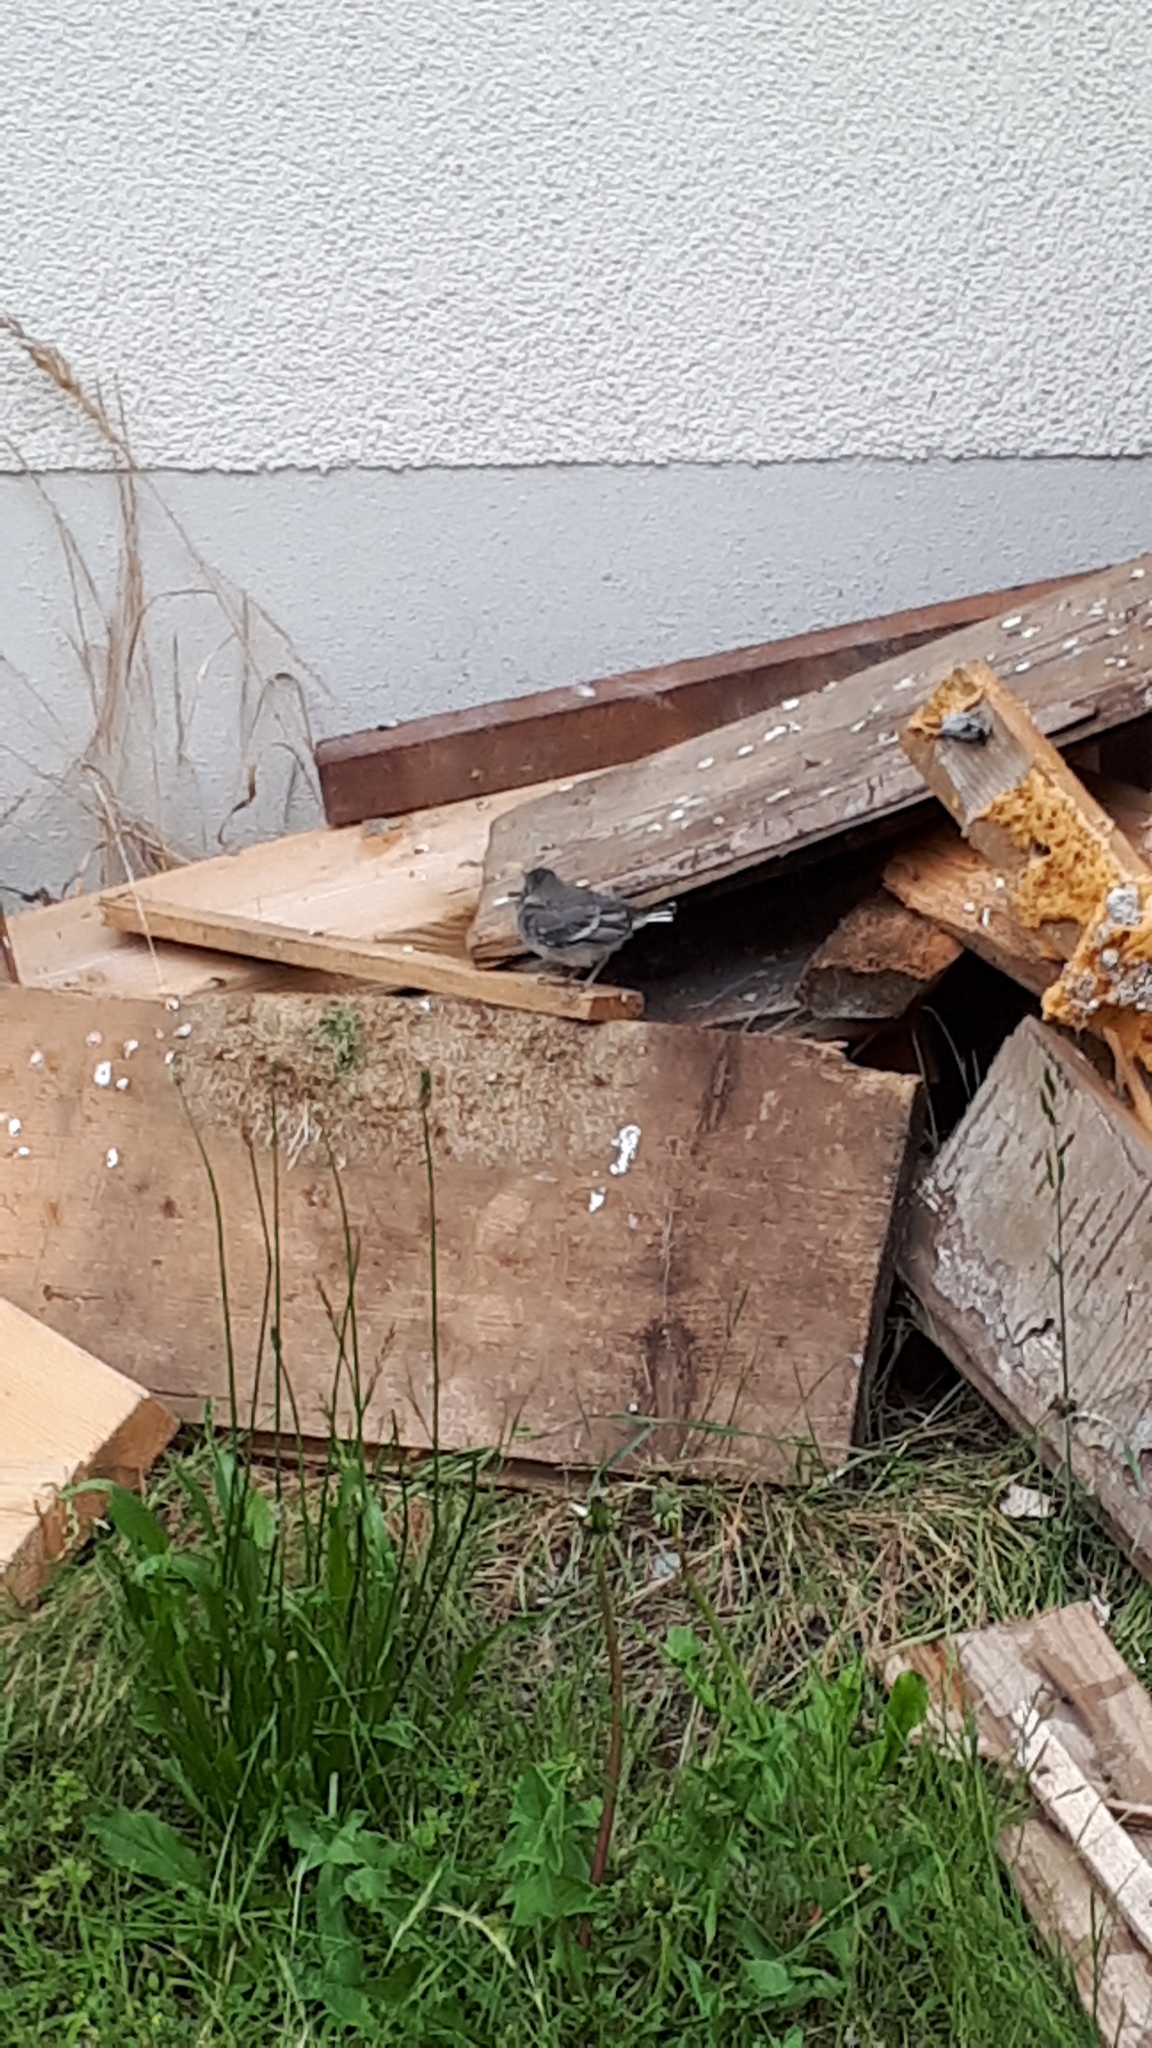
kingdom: Animalia
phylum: Chordata
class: Aves
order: Passeriformes
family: Motacillidae
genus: Motacilla
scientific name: Motacilla alba
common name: White wagtail
